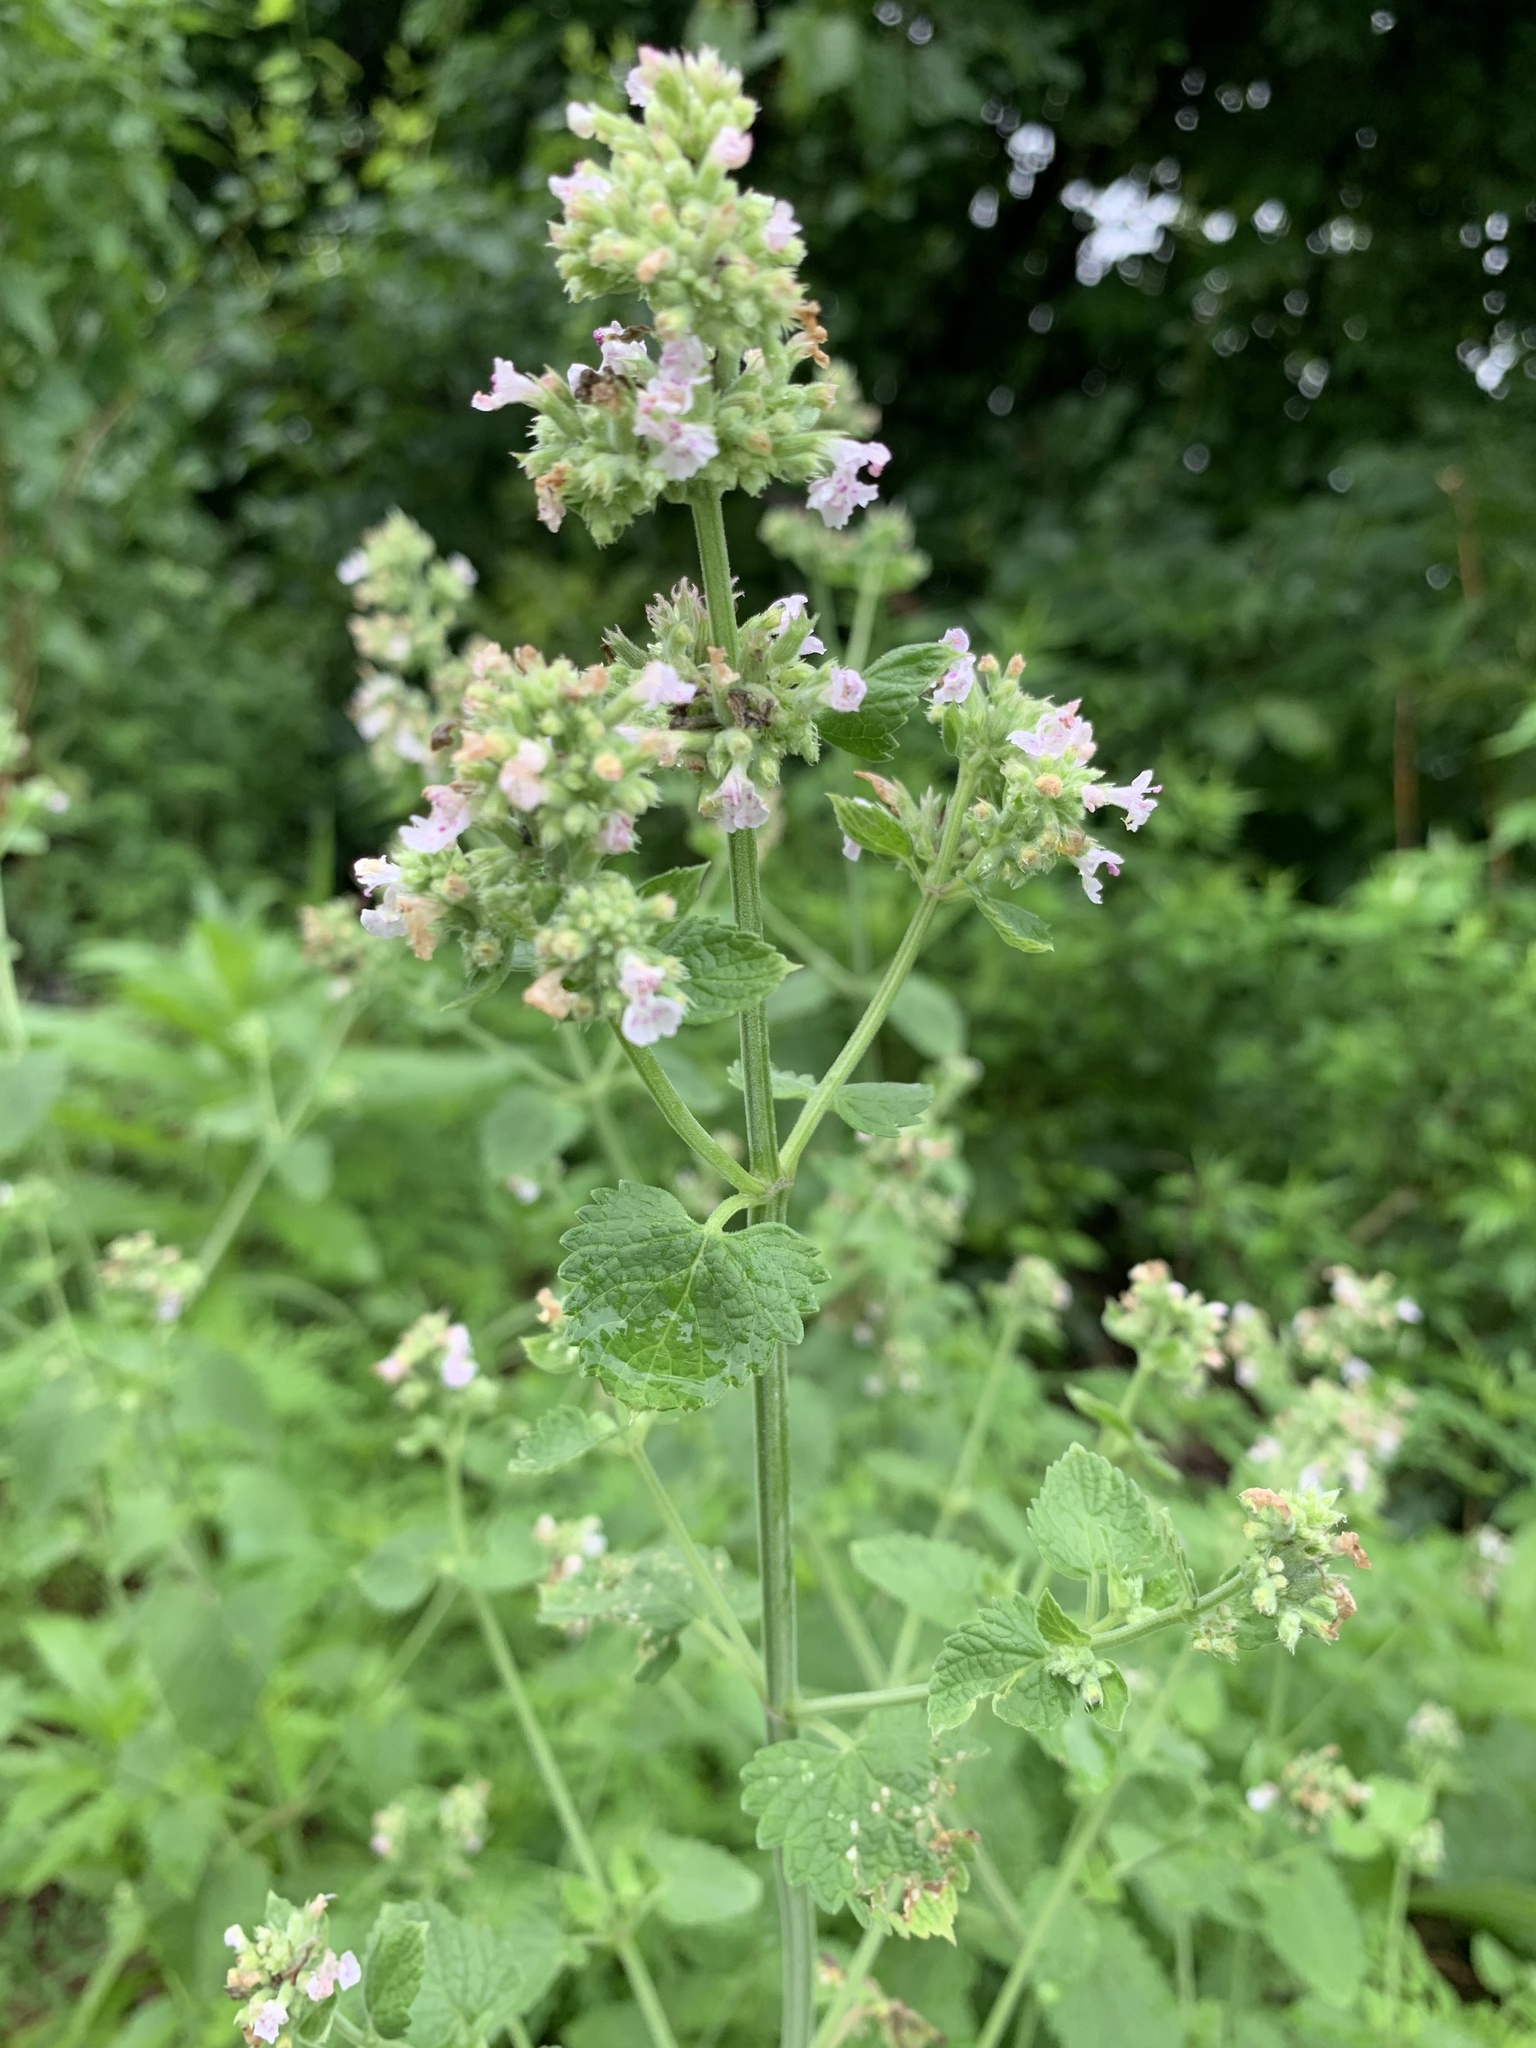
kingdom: Plantae
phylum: Tracheophyta
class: Magnoliopsida
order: Lamiales
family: Lamiaceae
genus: Nepeta
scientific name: Nepeta cataria
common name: Catnip
